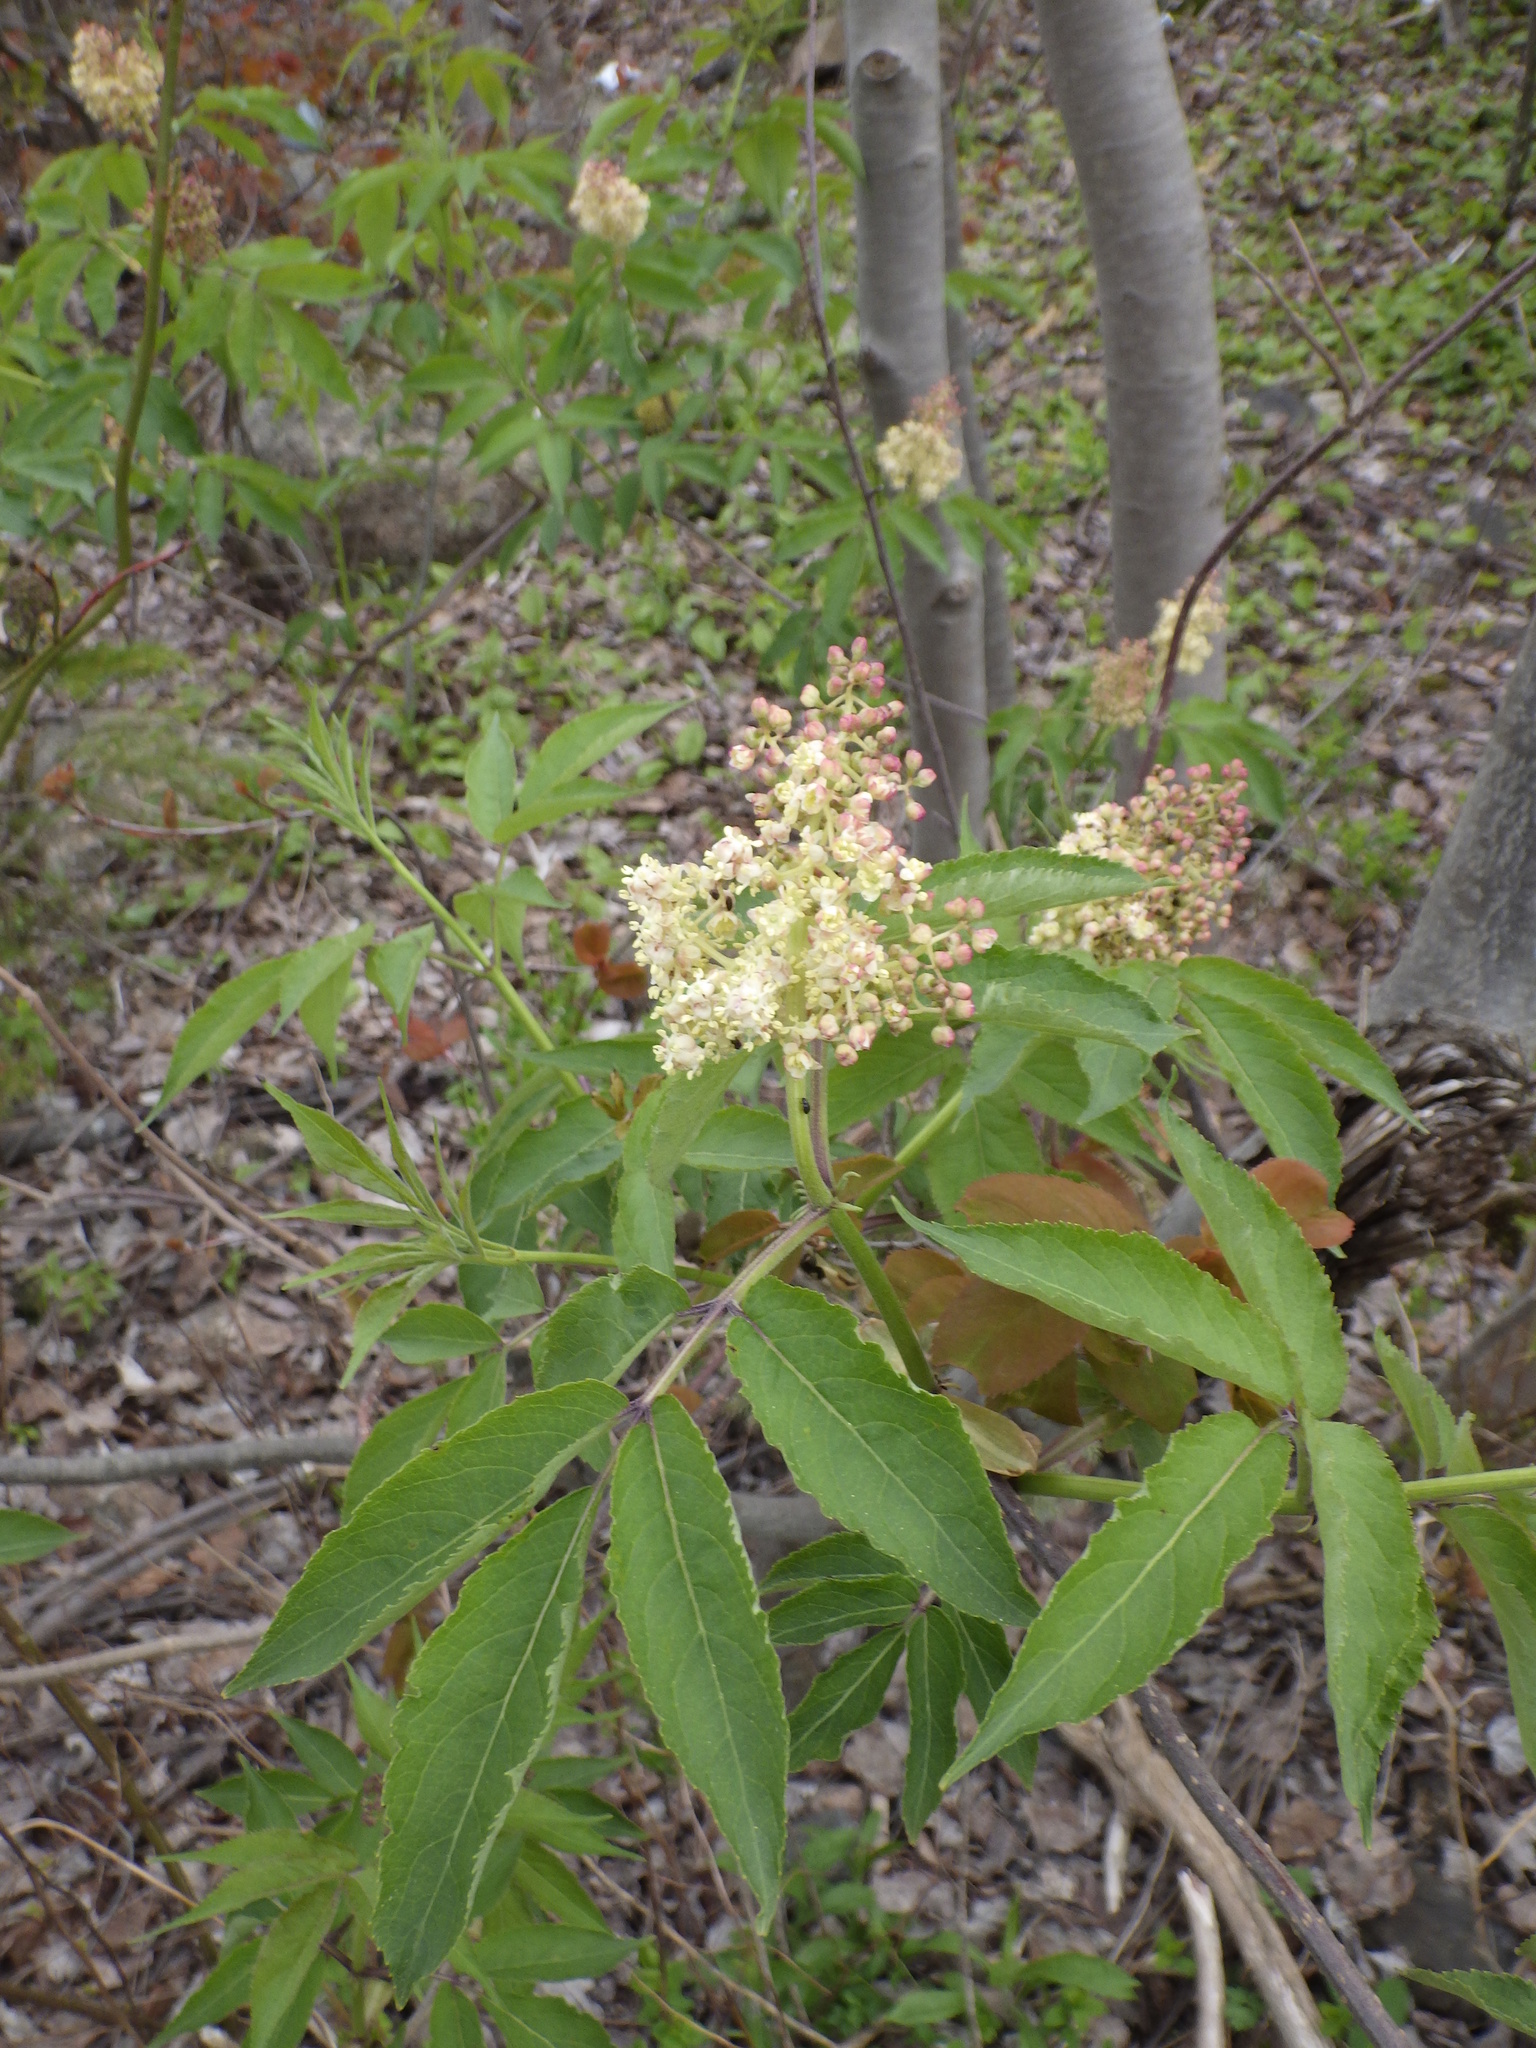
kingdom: Plantae
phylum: Tracheophyta
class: Magnoliopsida
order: Dipsacales
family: Viburnaceae
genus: Sambucus
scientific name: Sambucus racemosa
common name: Red-berried elder
